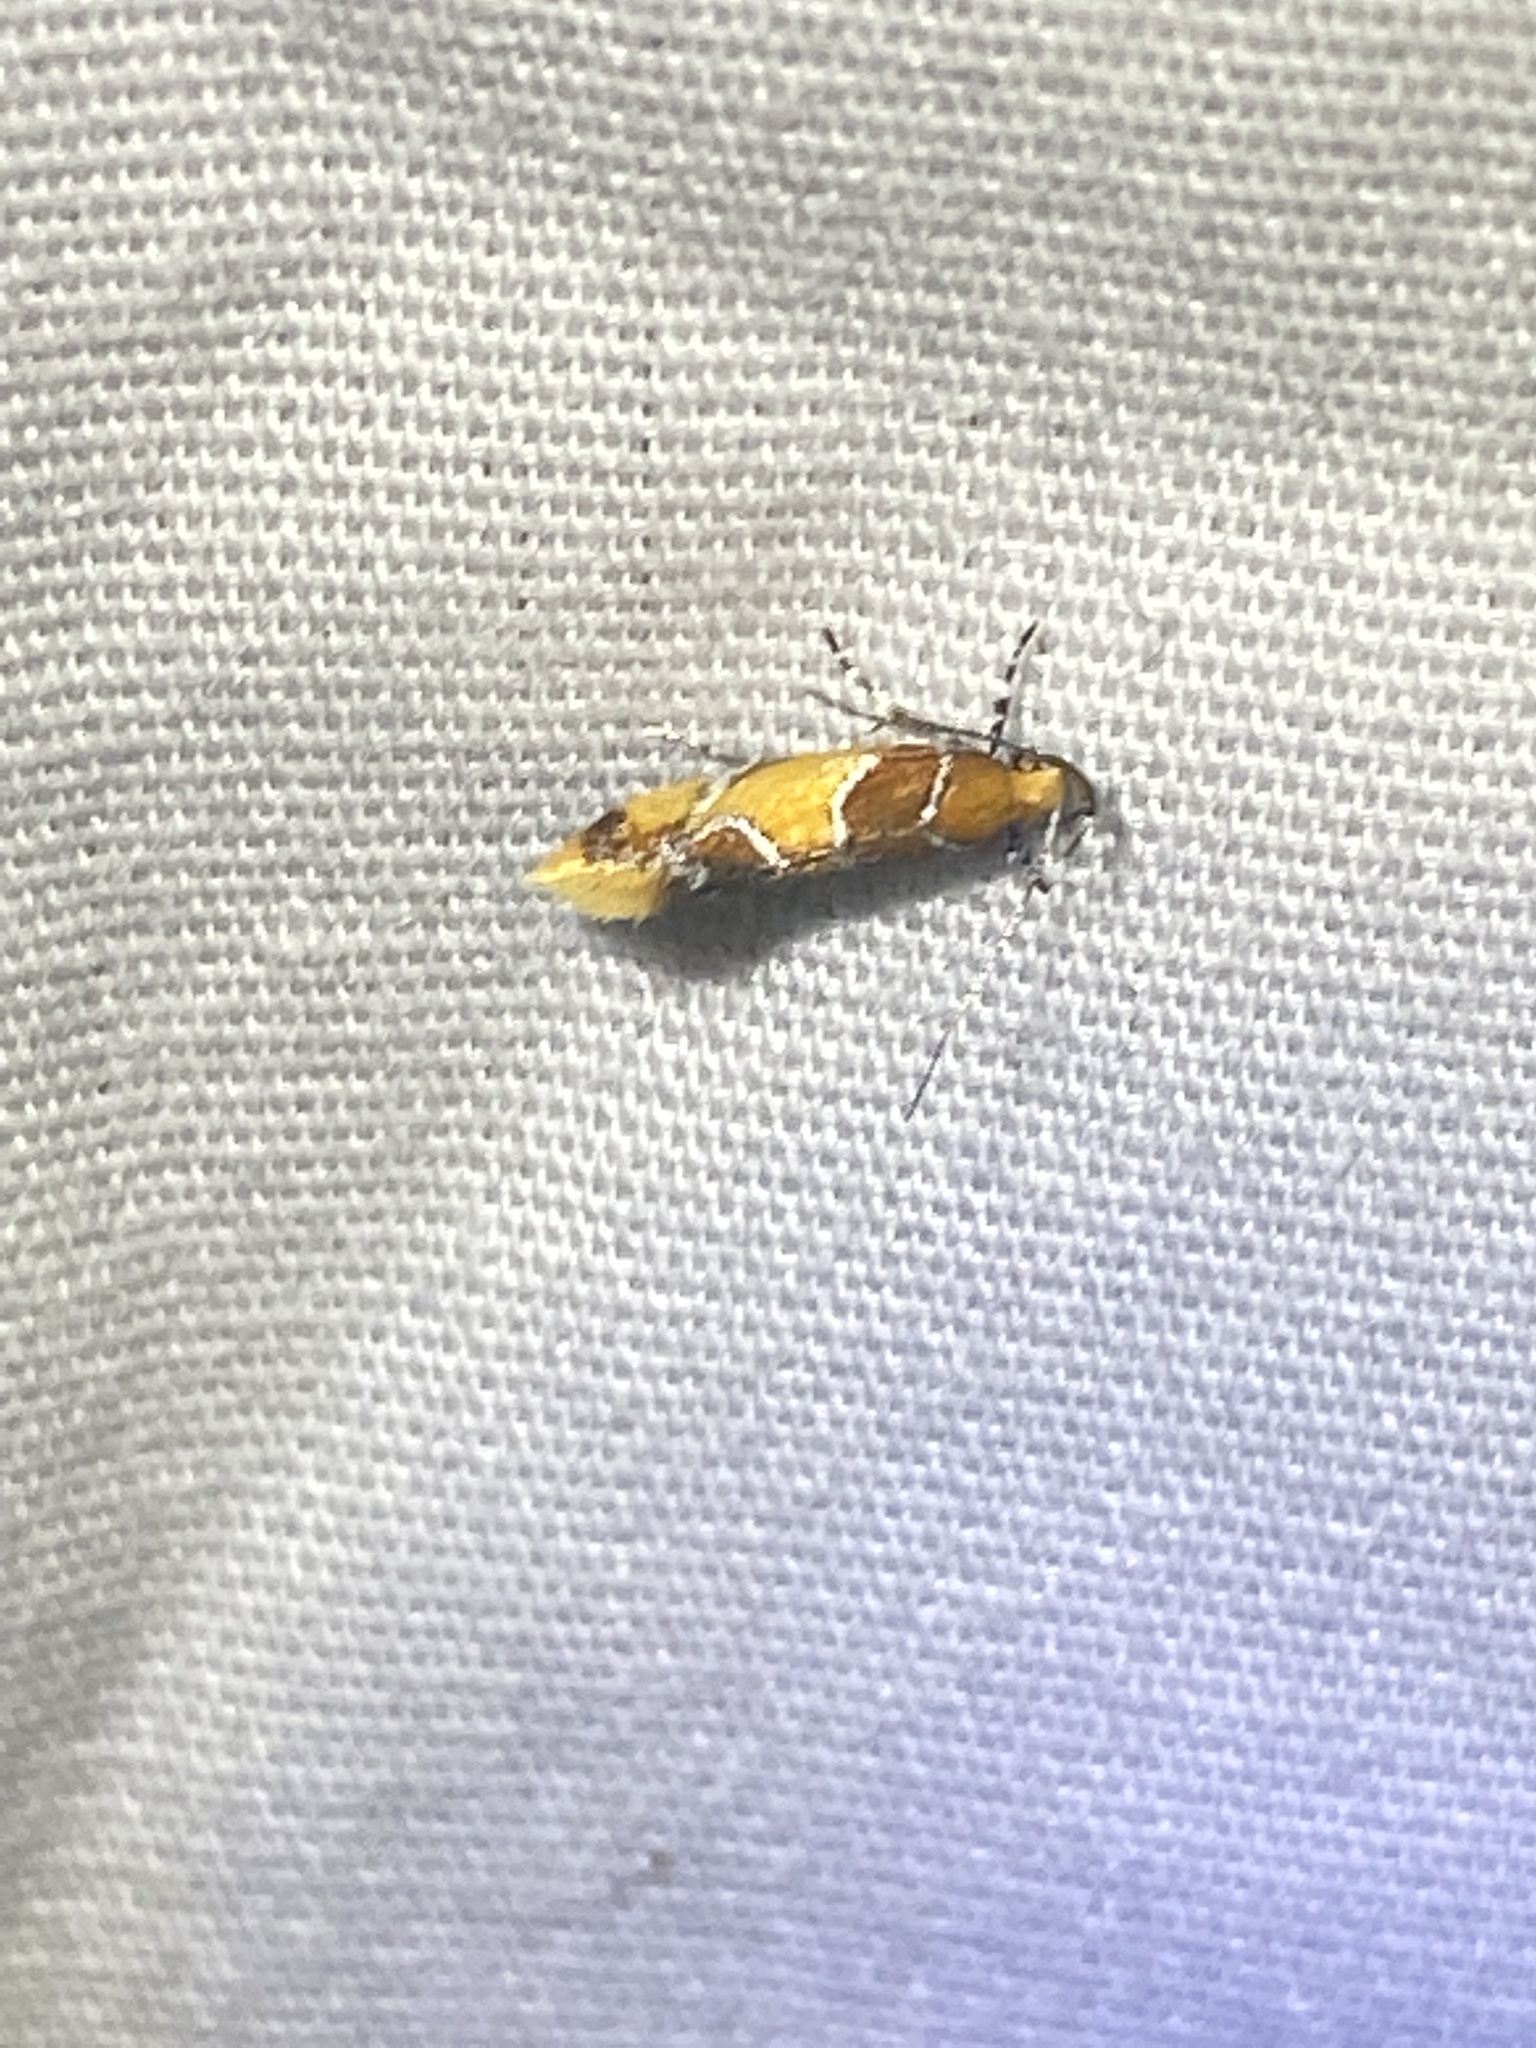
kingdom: Animalia
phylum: Arthropoda
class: Insecta
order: Lepidoptera
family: Oecophoridae
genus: Callima
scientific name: Callima argenticinctella
